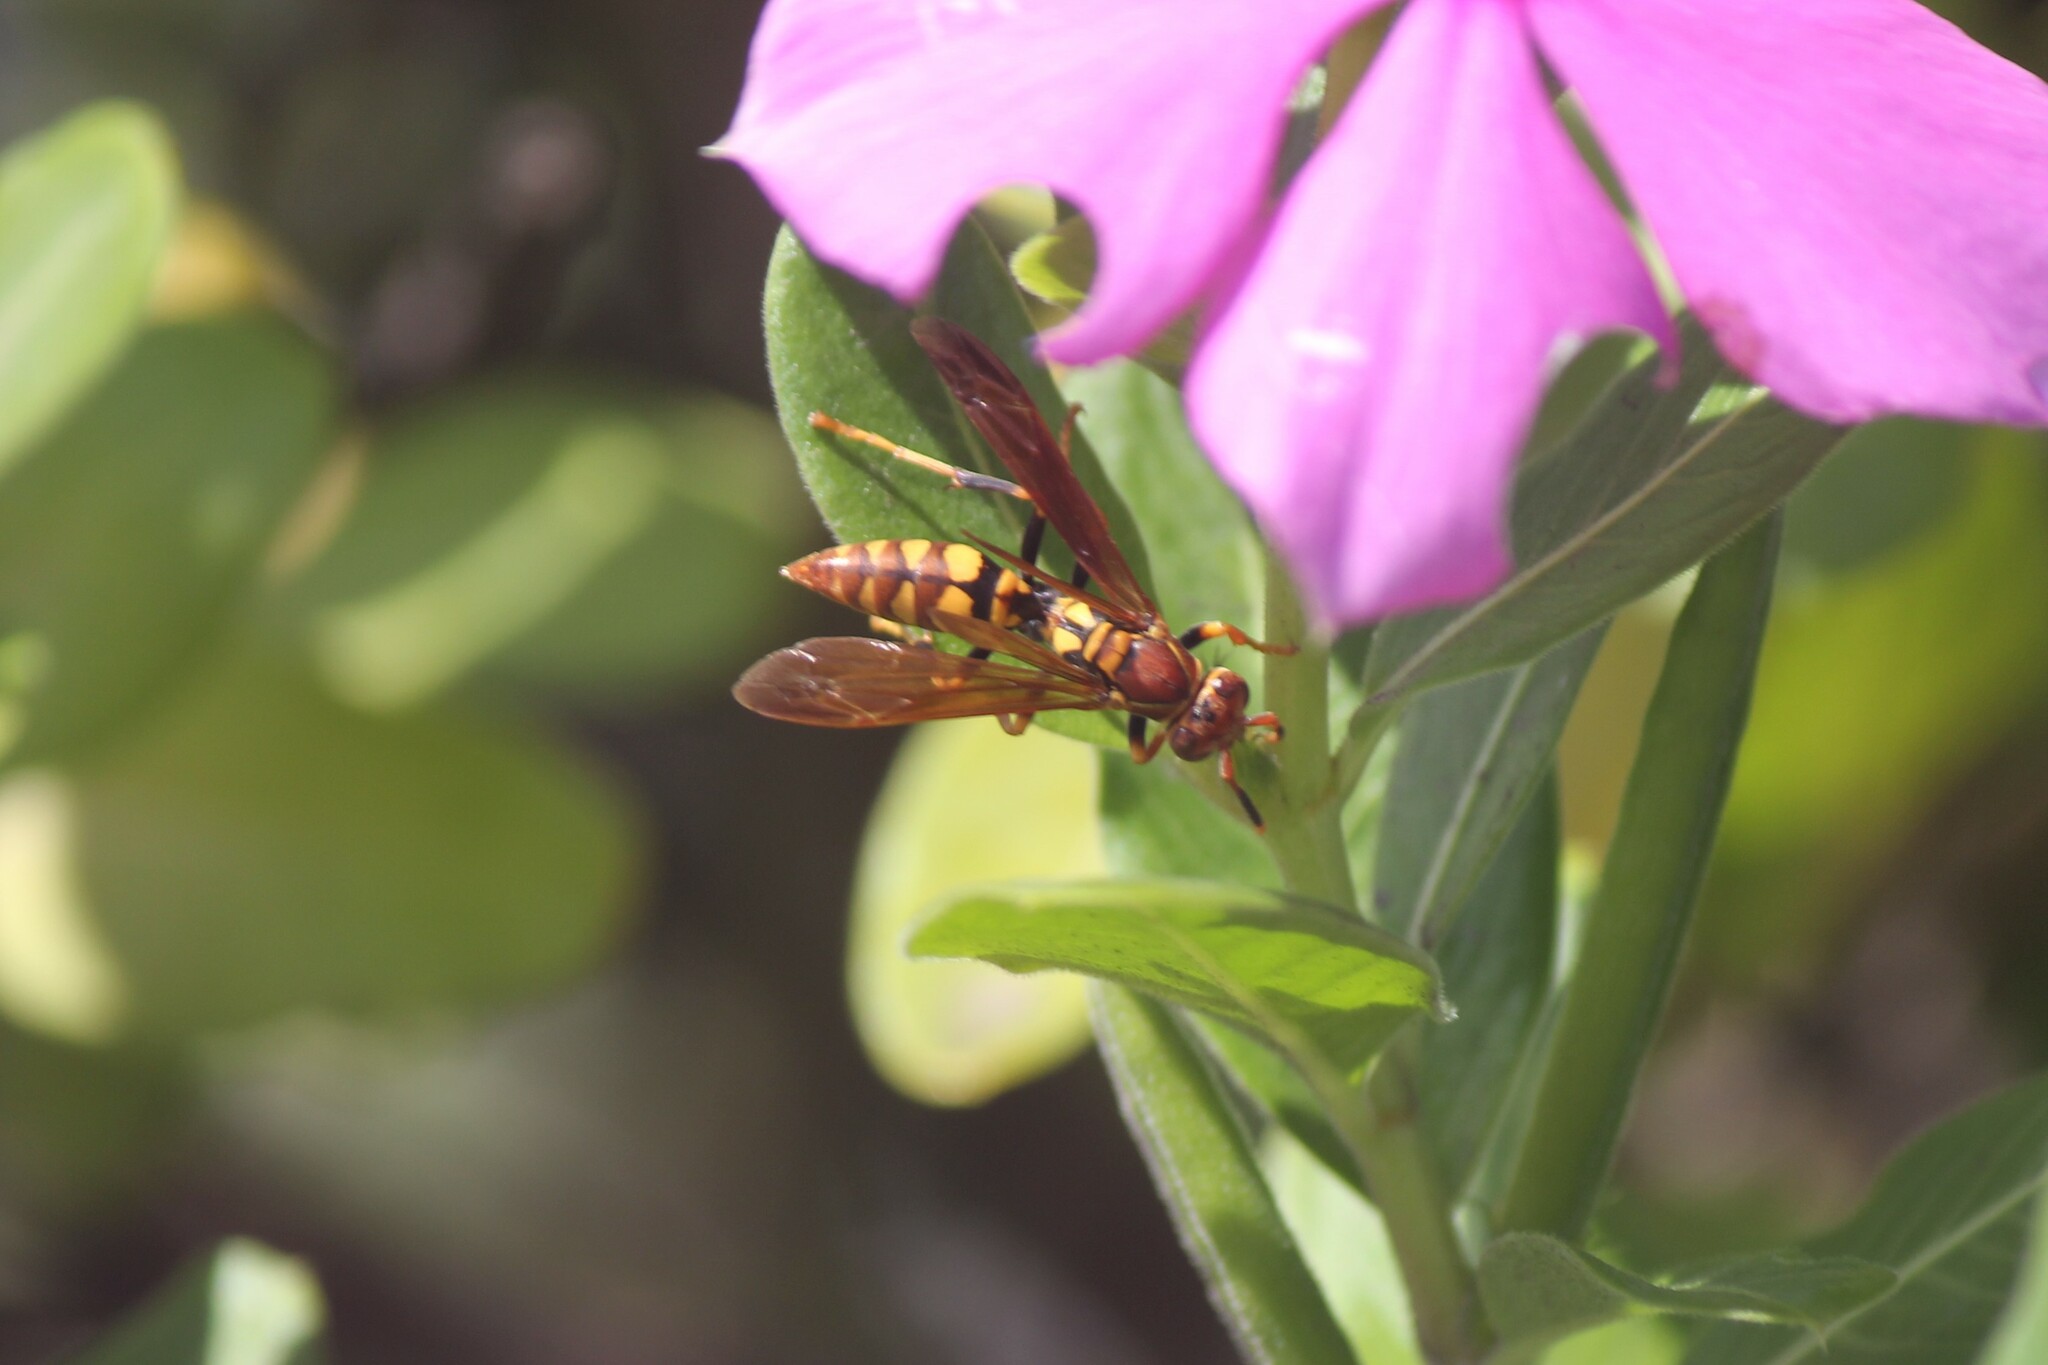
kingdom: Animalia
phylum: Arthropoda
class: Insecta
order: Hymenoptera
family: Eumenidae
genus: Polistes
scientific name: Polistes versicolor
